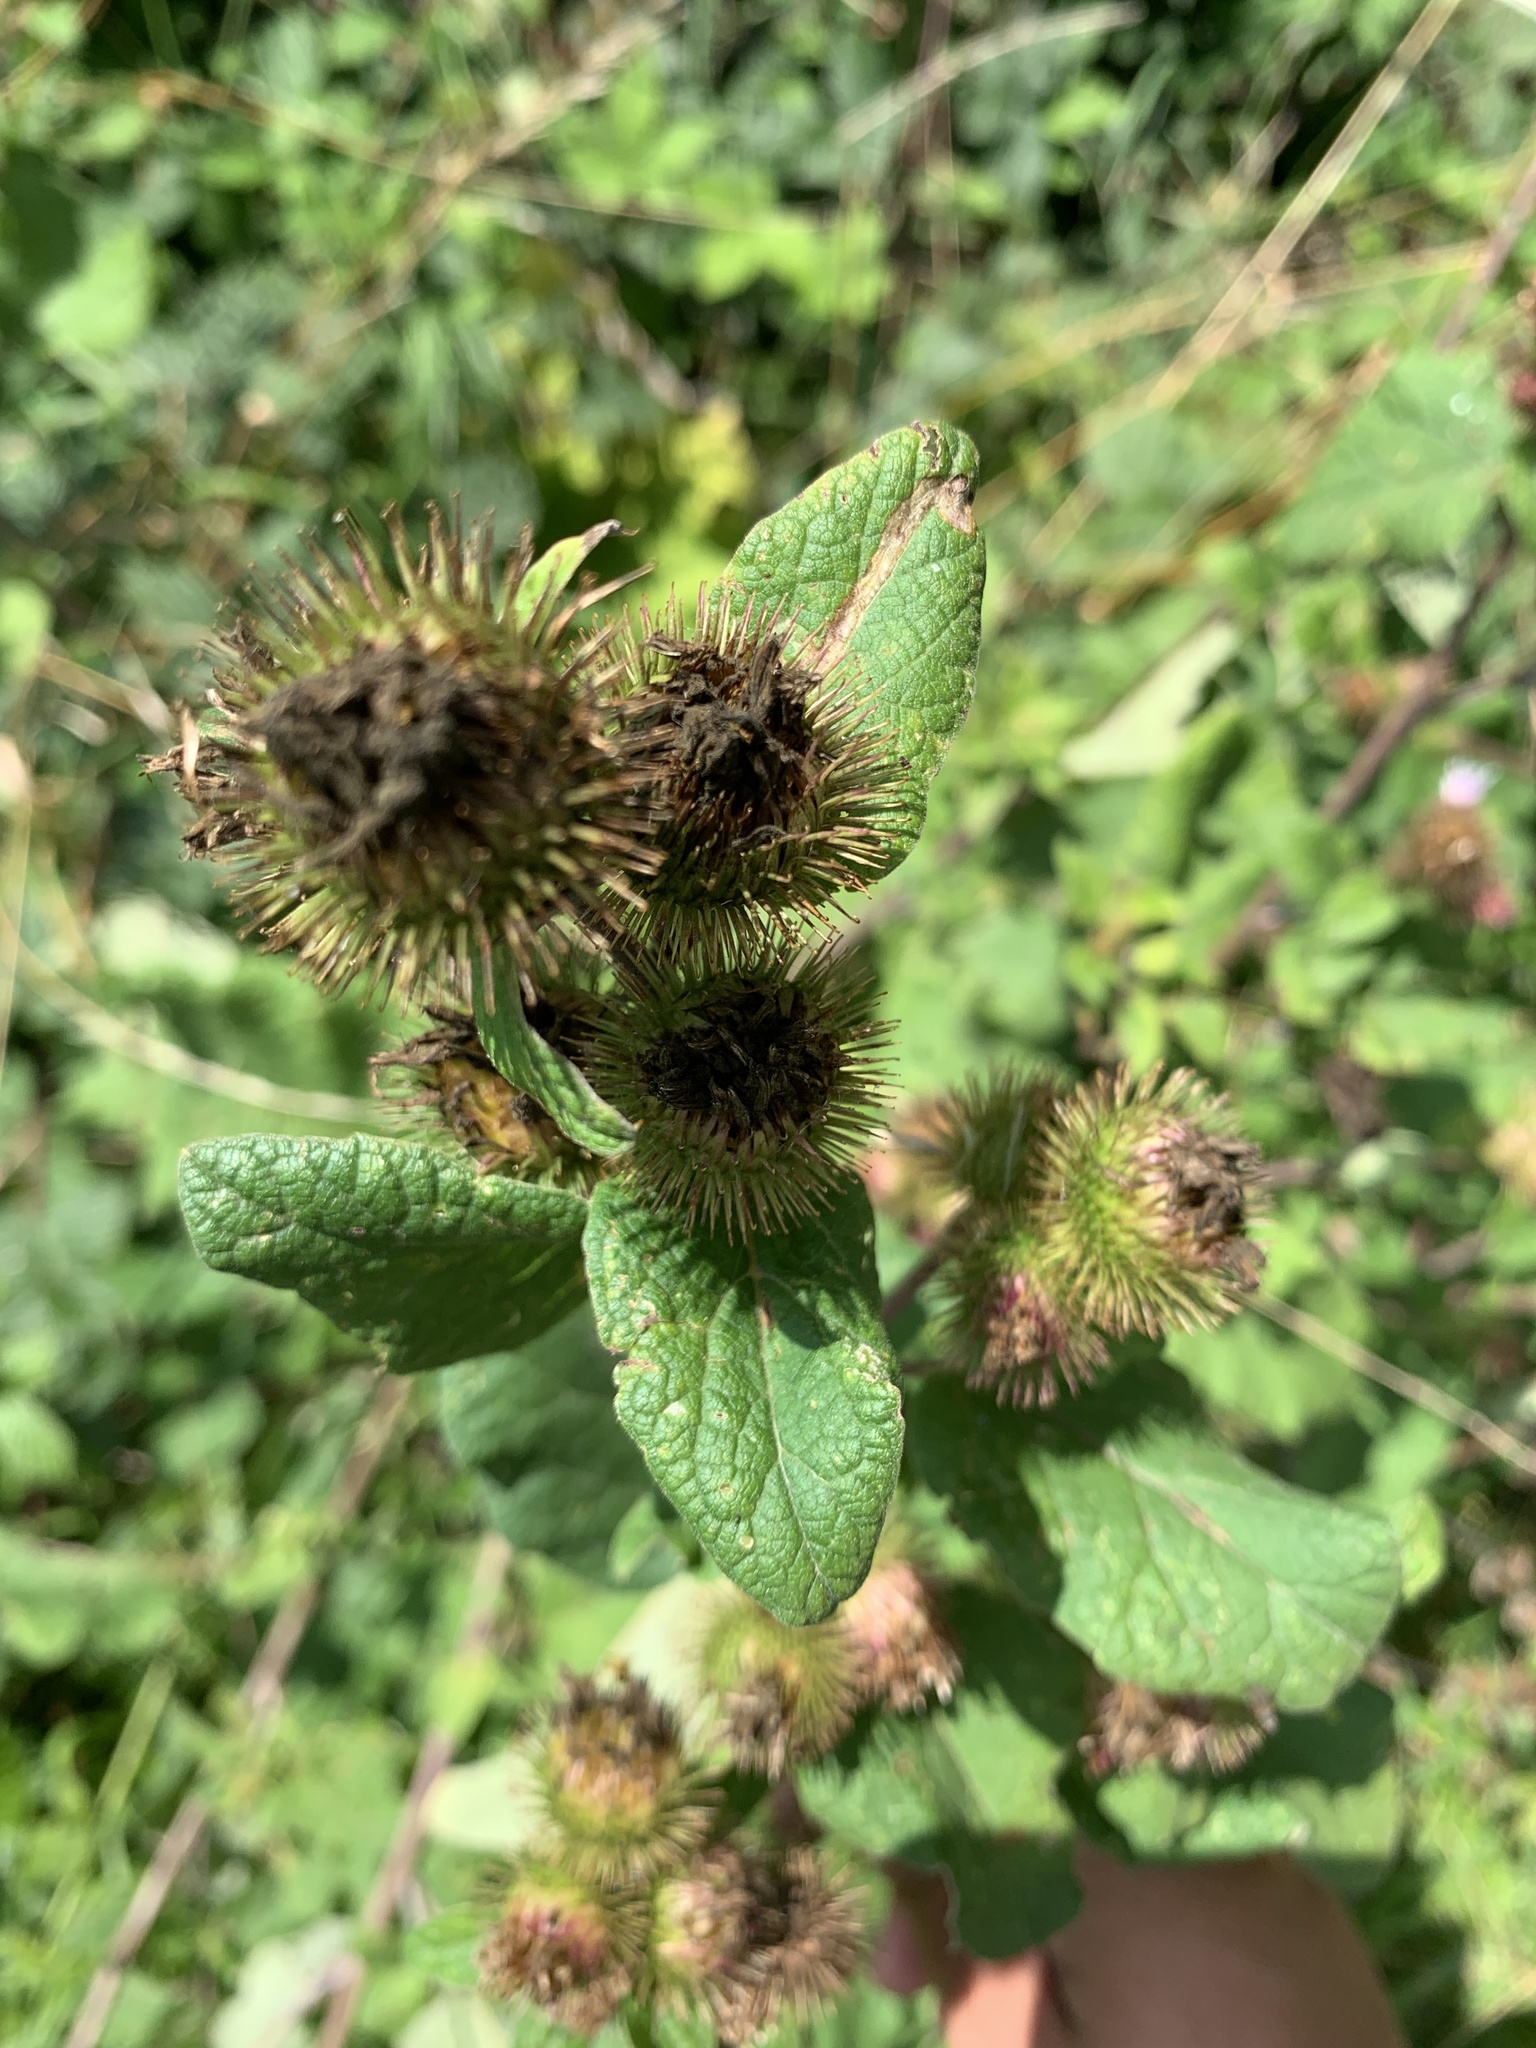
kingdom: Plantae
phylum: Tracheophyta
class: Magnoliopsida
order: Asterales
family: Asteraceae
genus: Arctium
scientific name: Arctium minus
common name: Lesser burdock
